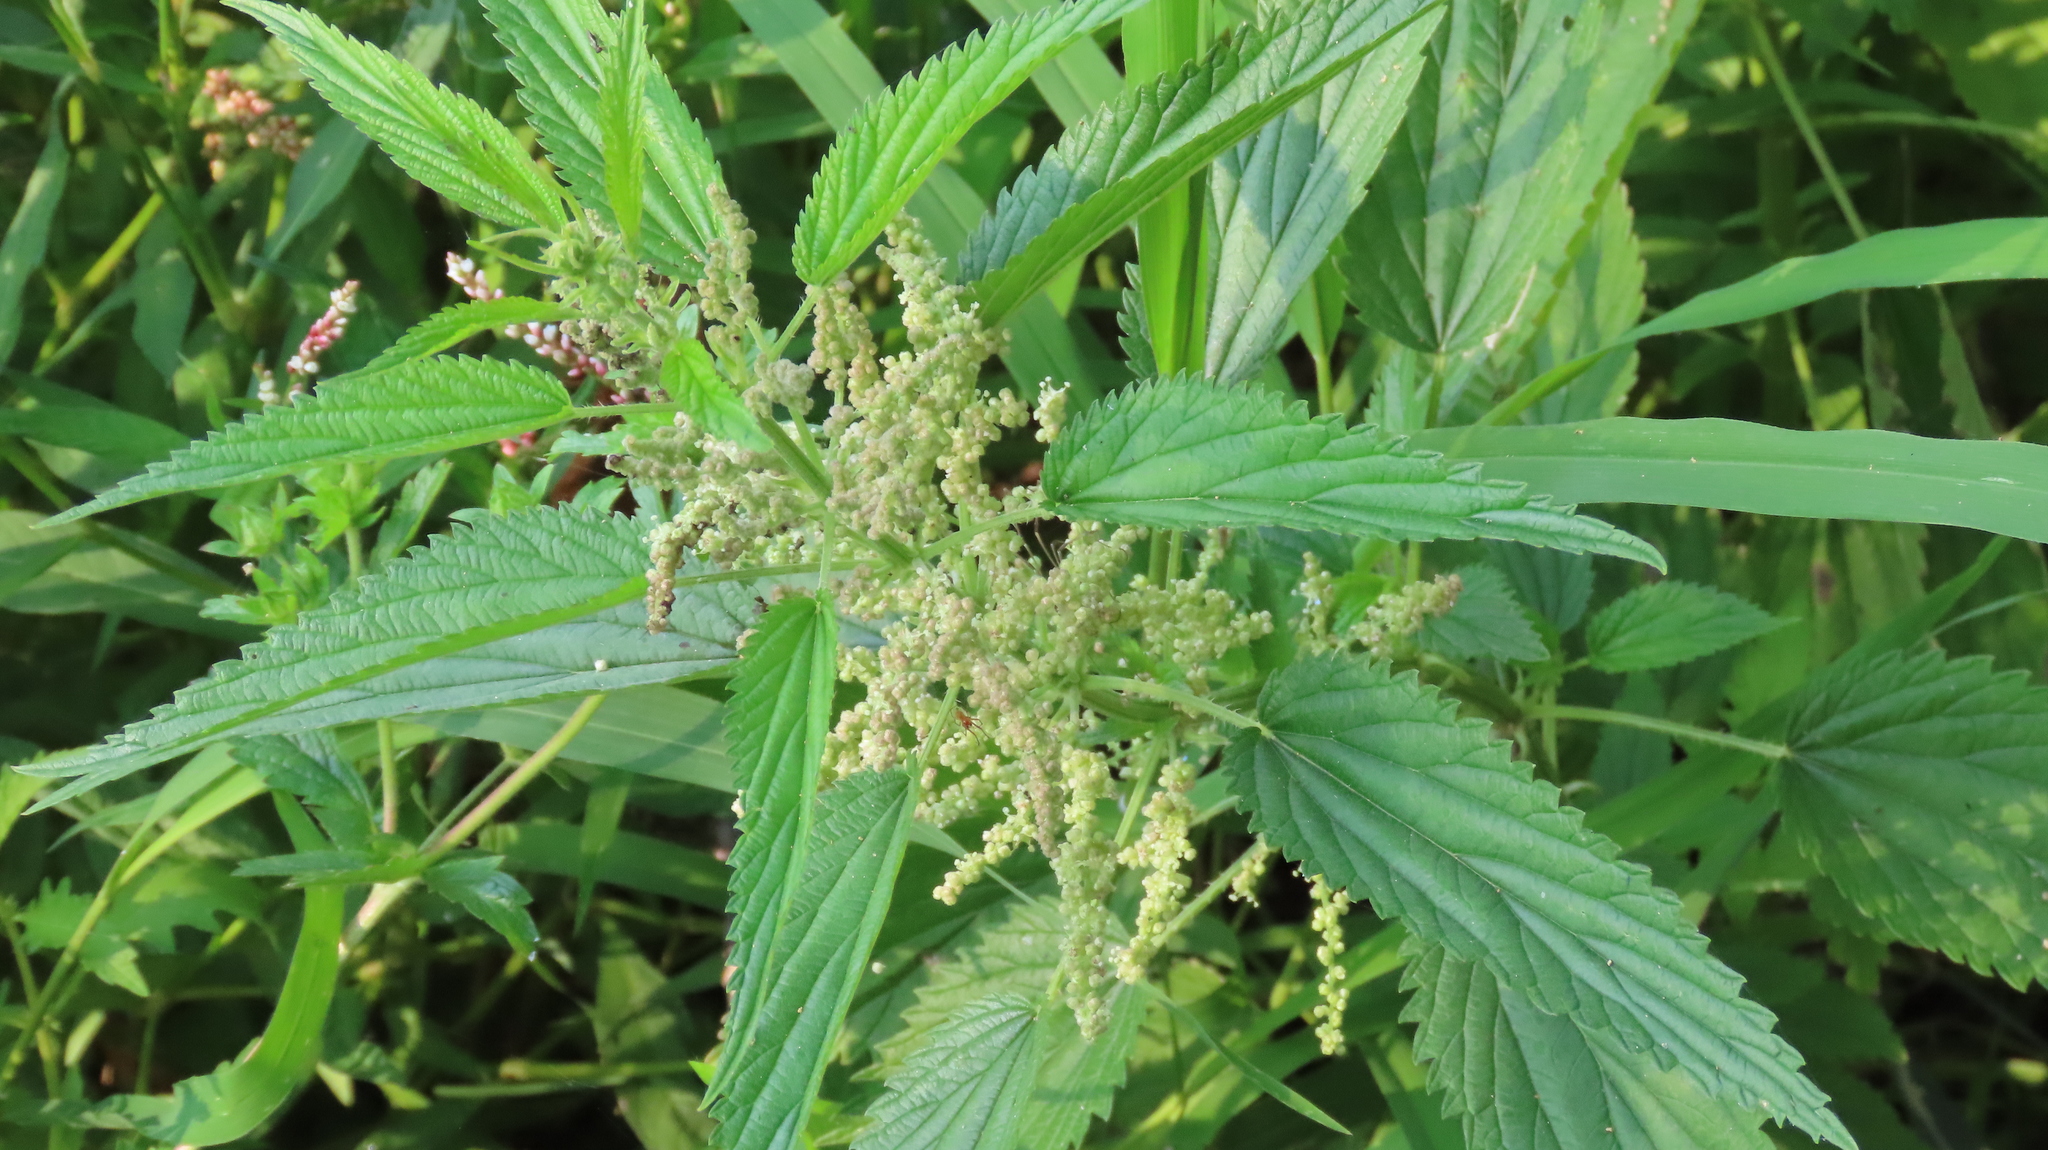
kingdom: Plantae
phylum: Tracheophyta
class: Magnoliopsida
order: Rosales
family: Urticaceae
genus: Urtica
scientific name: Urtica dioica
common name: Common nettle
